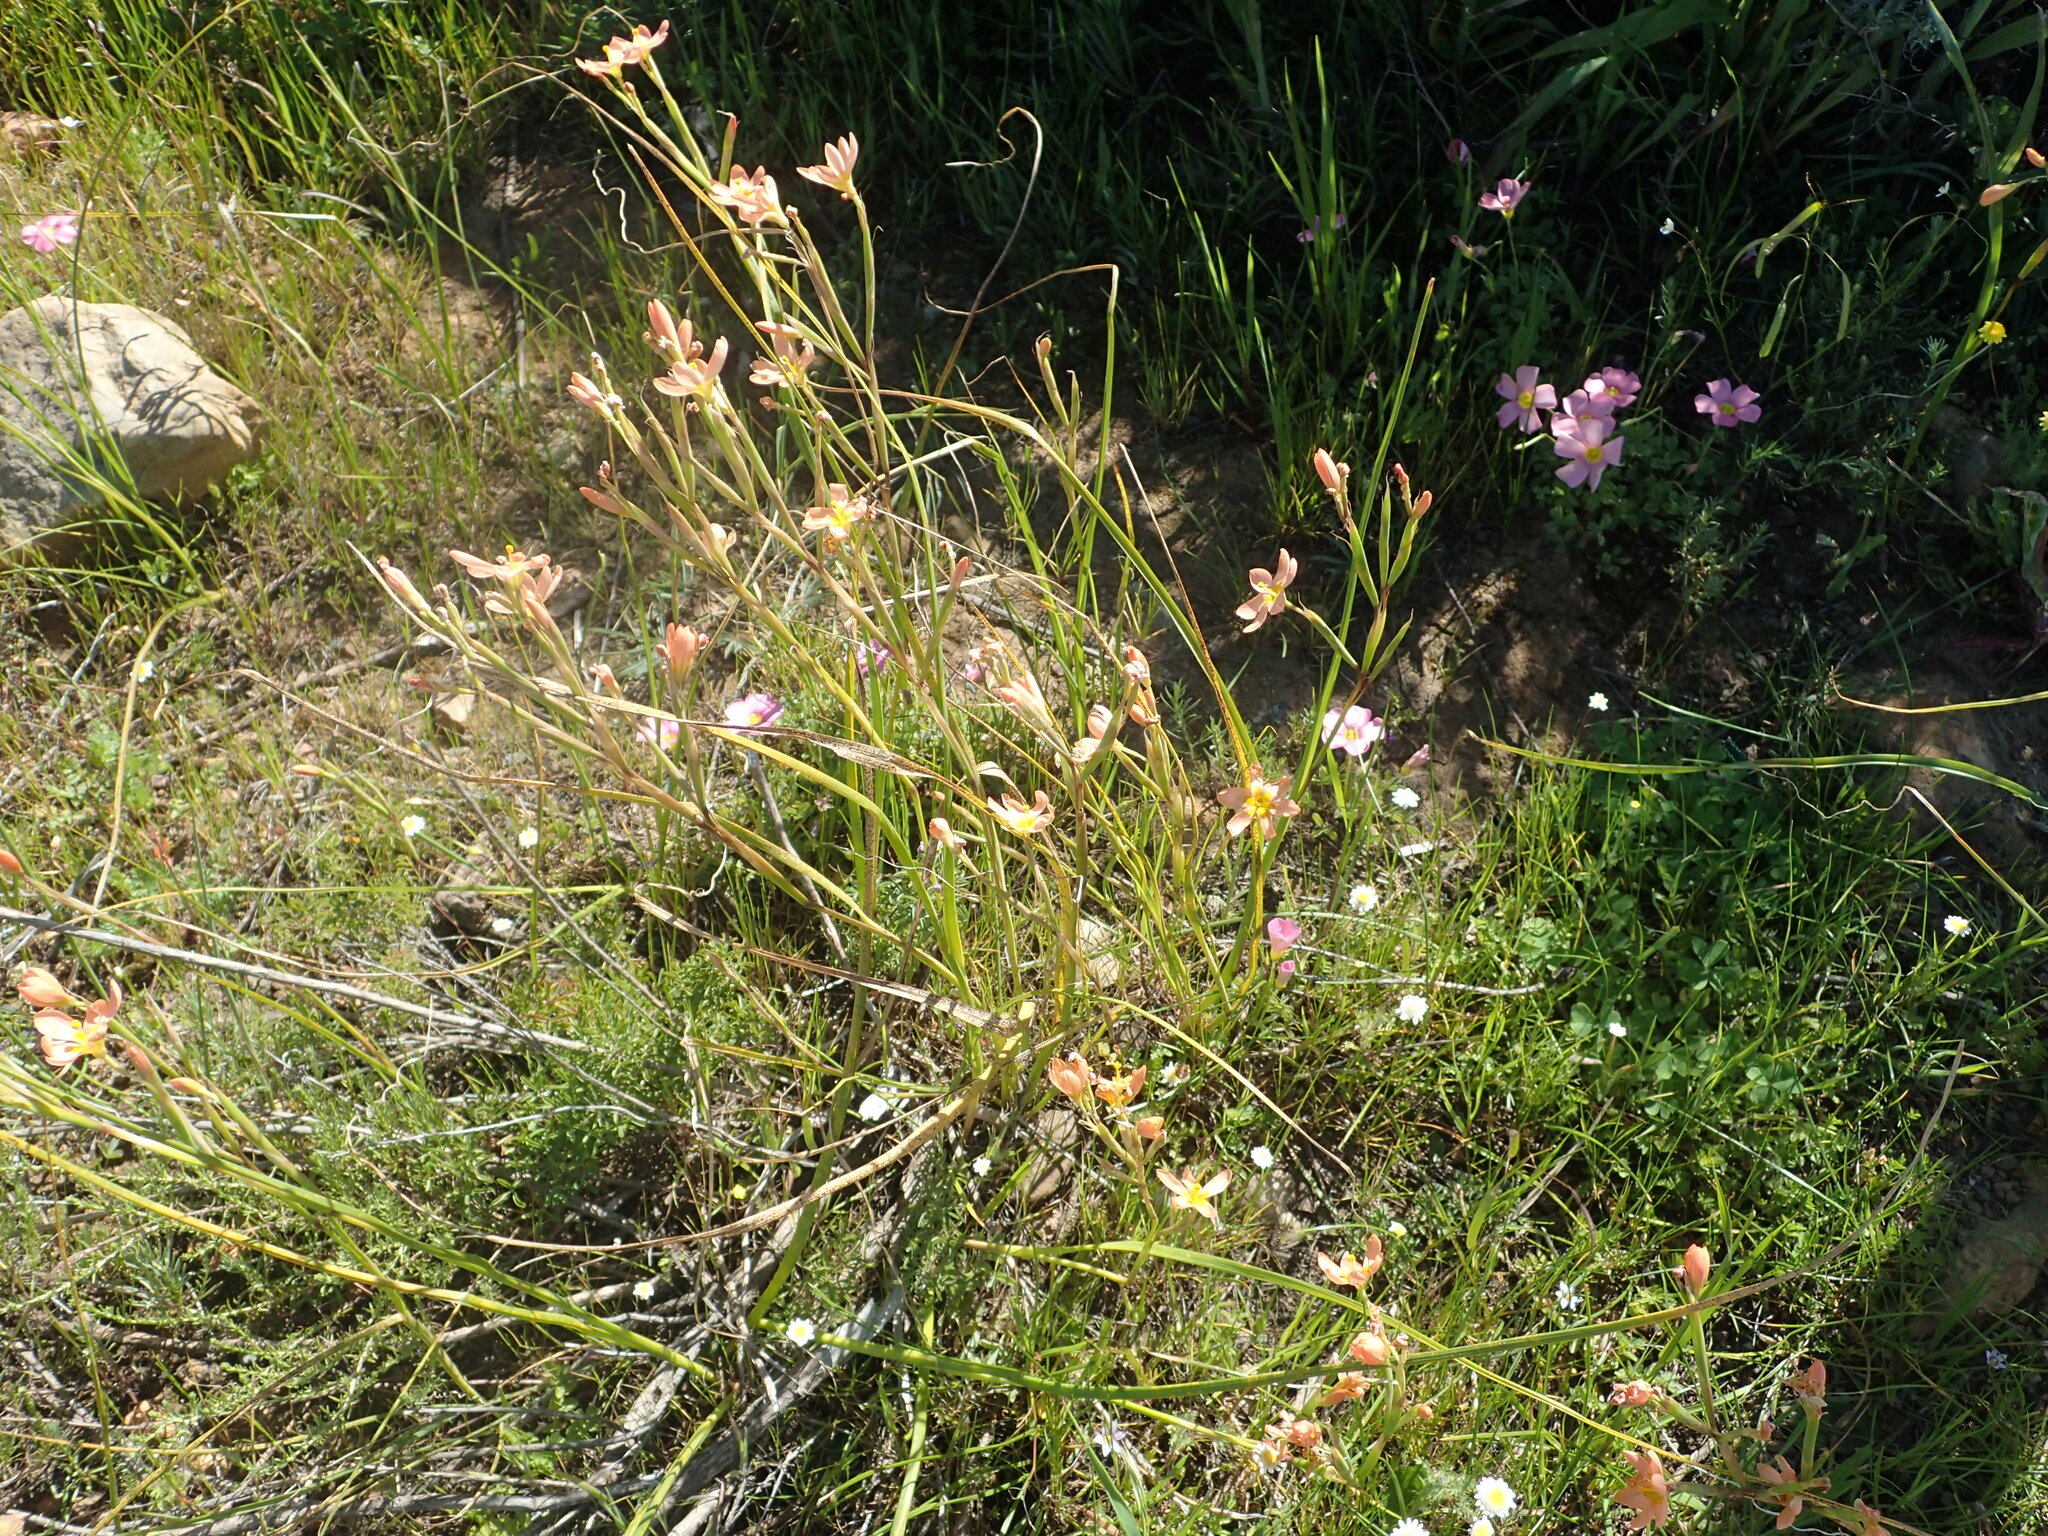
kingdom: Plantae
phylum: Tracheophyta
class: Liliopsida
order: Asparagales
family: Iridaceae
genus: Moraea
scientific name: Moraea miniata
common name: Two-leaf cape-tulip
